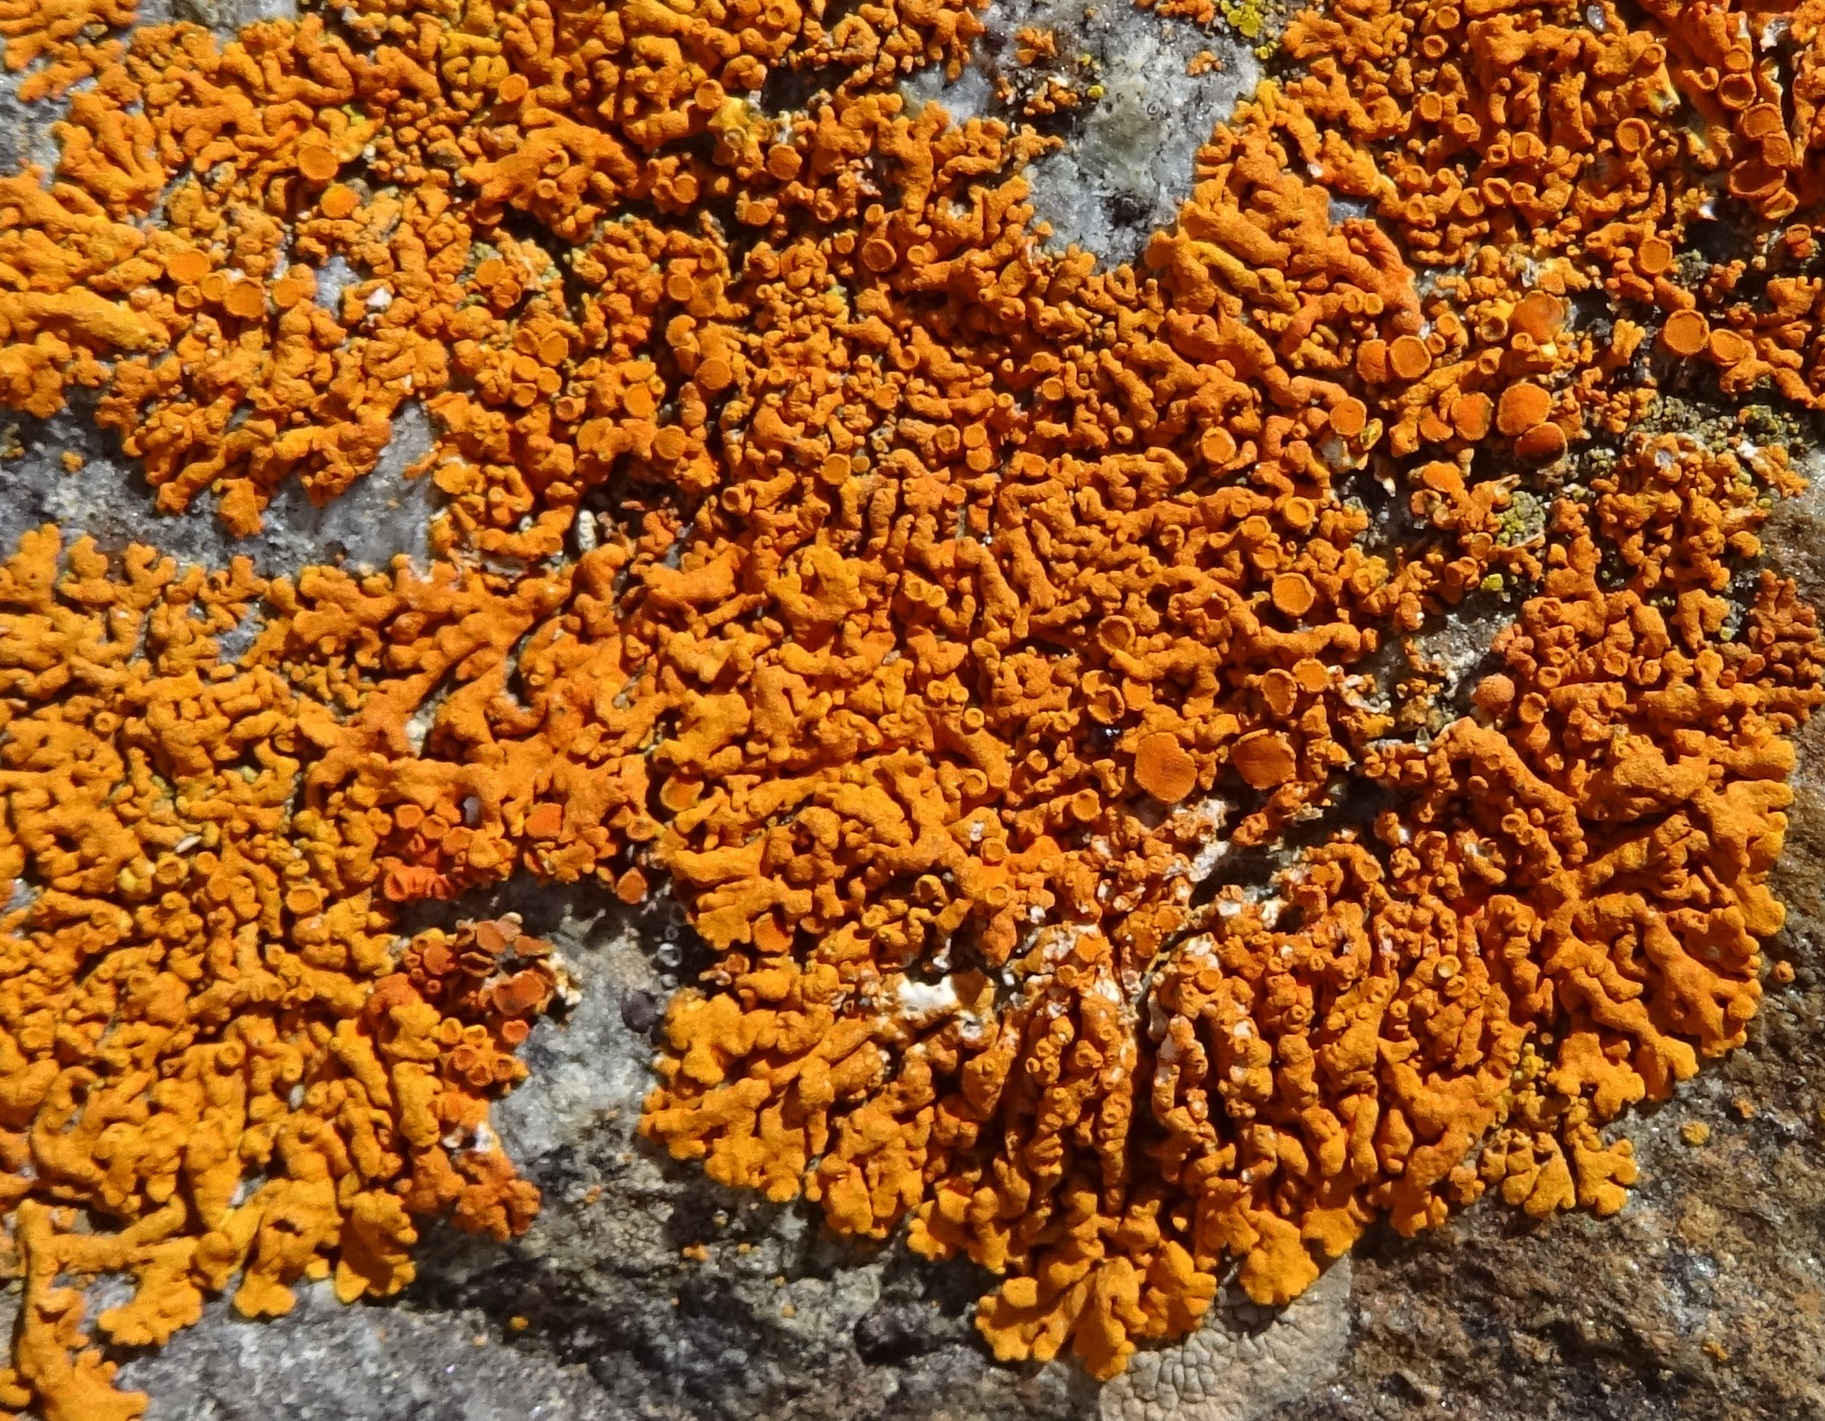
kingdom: Fungi
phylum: Ascomycota
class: Lecanoromycetes
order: Teloschistales
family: Teloschistaceae
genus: Xanthoria
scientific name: Xanthoria elegans
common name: Elegant sunburst lichen
